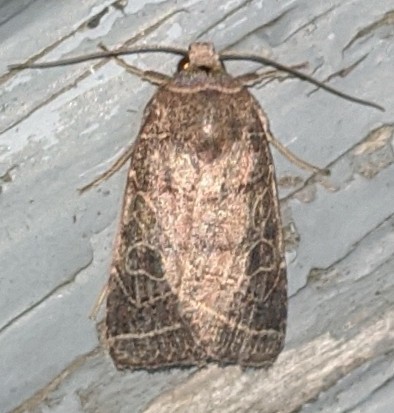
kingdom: Animalia
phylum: Arthropoda
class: Insecta
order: Lepidoptera
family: Noctuidae
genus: Orthodes
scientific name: Orthodes majuscula
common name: Rustic quaker
